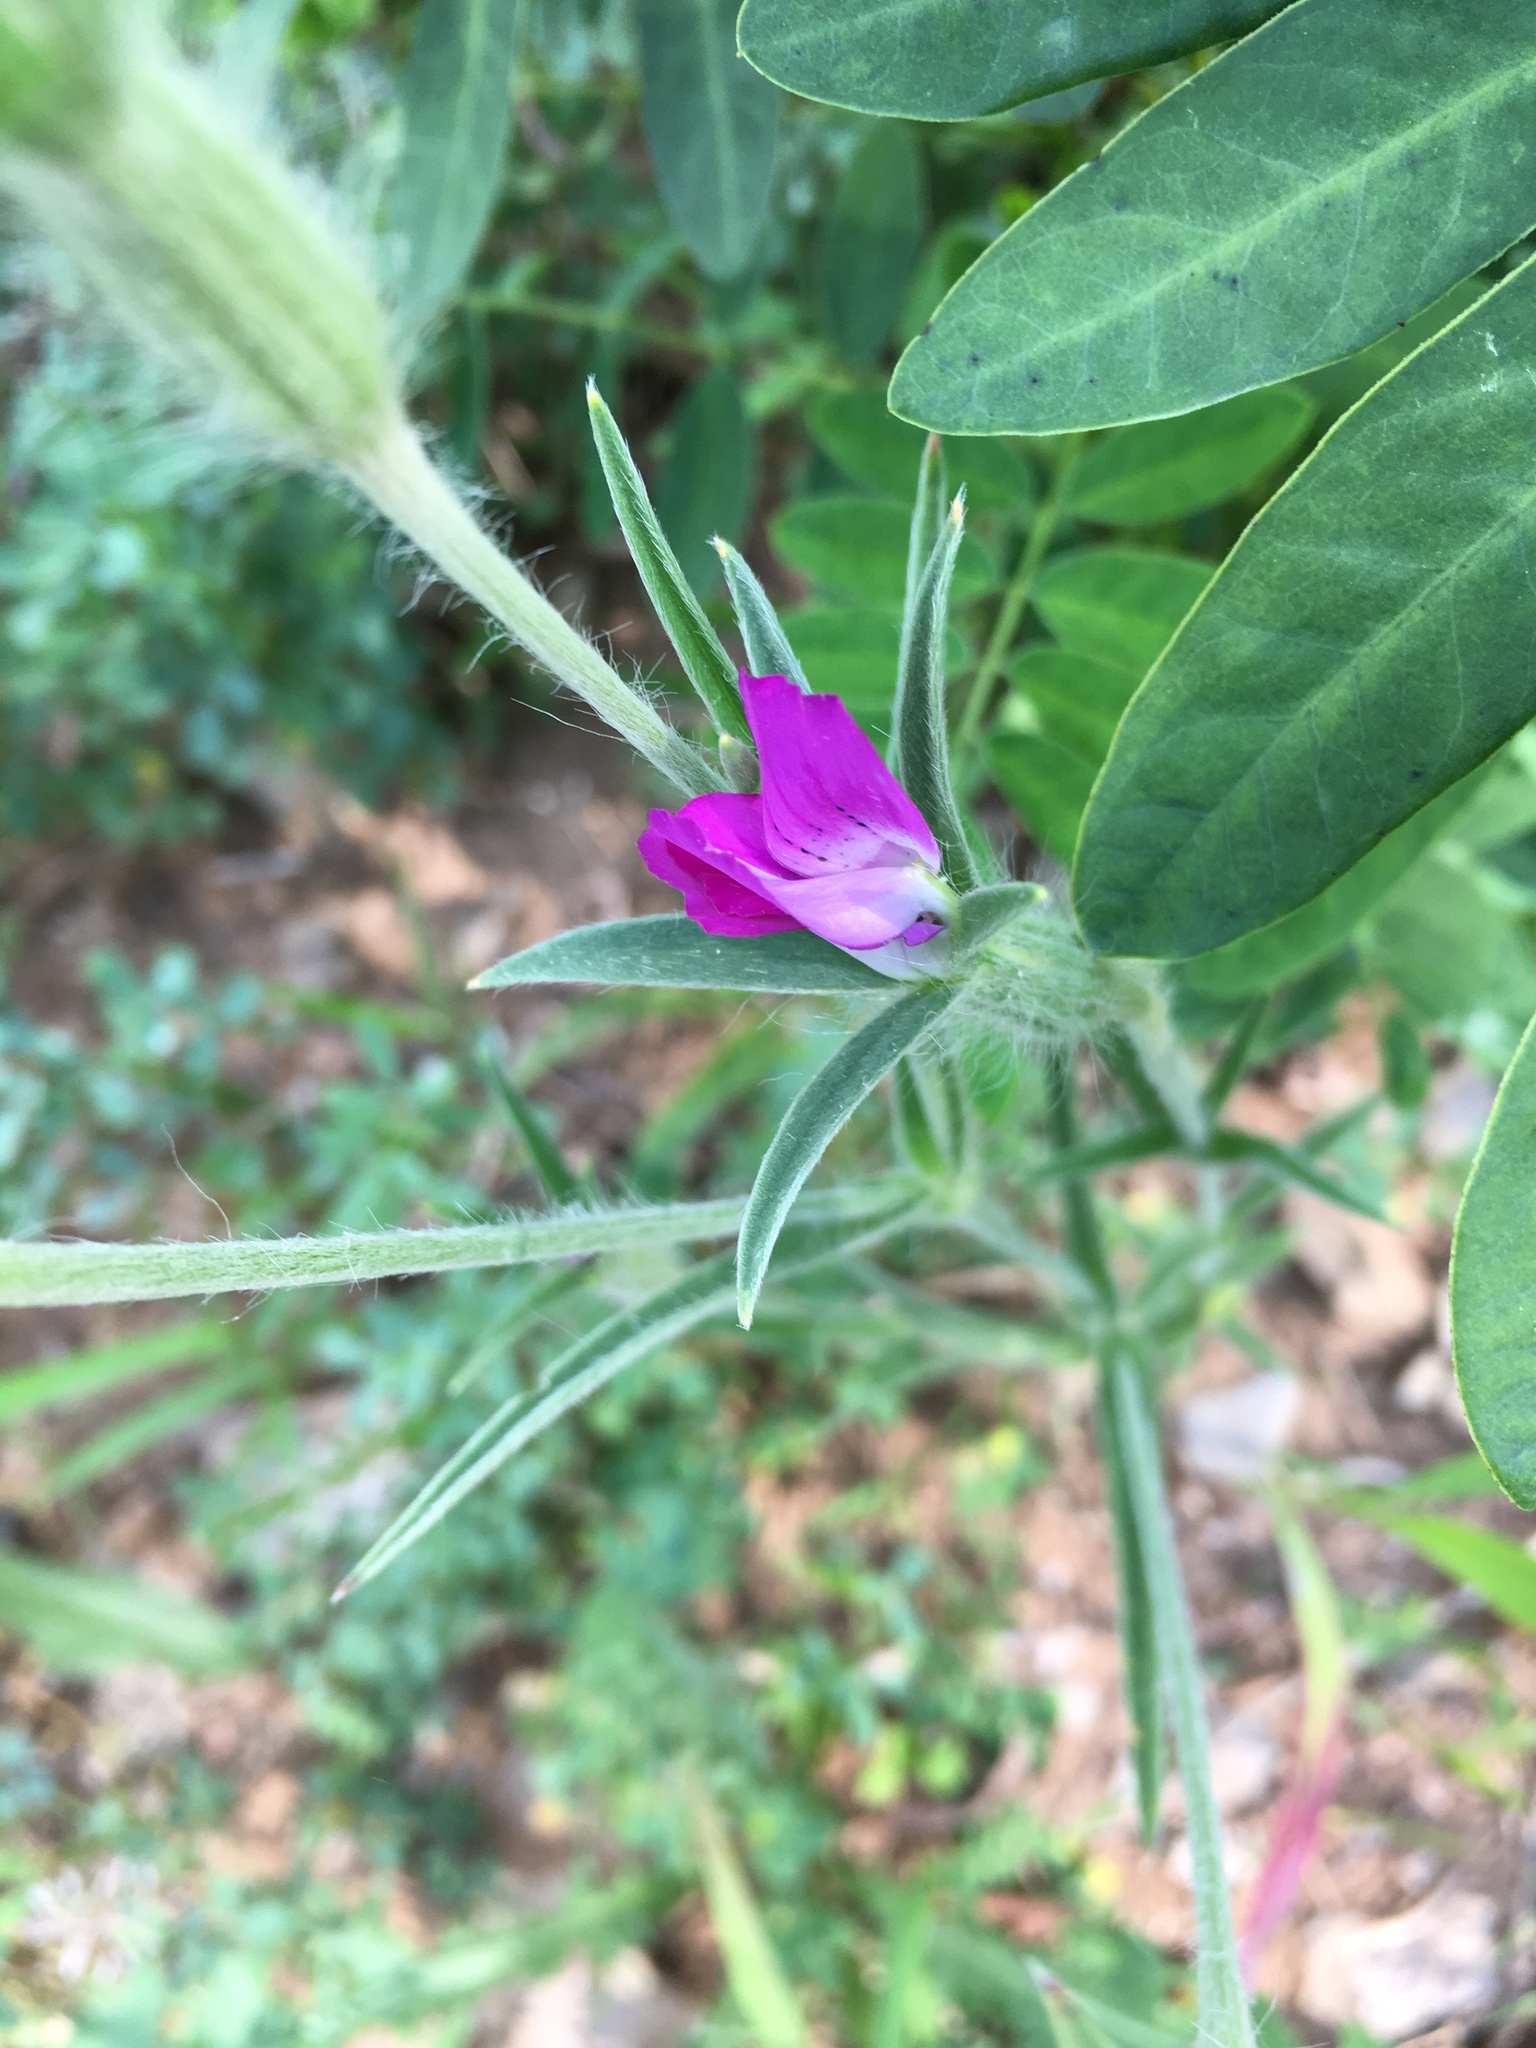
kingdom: Plantae
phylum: Tracheophyta
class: Magnoliopsida
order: Caryophyllales
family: Caryophyllaceae
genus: Agrostemma
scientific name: Agrostemma githago
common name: Common corncockle
